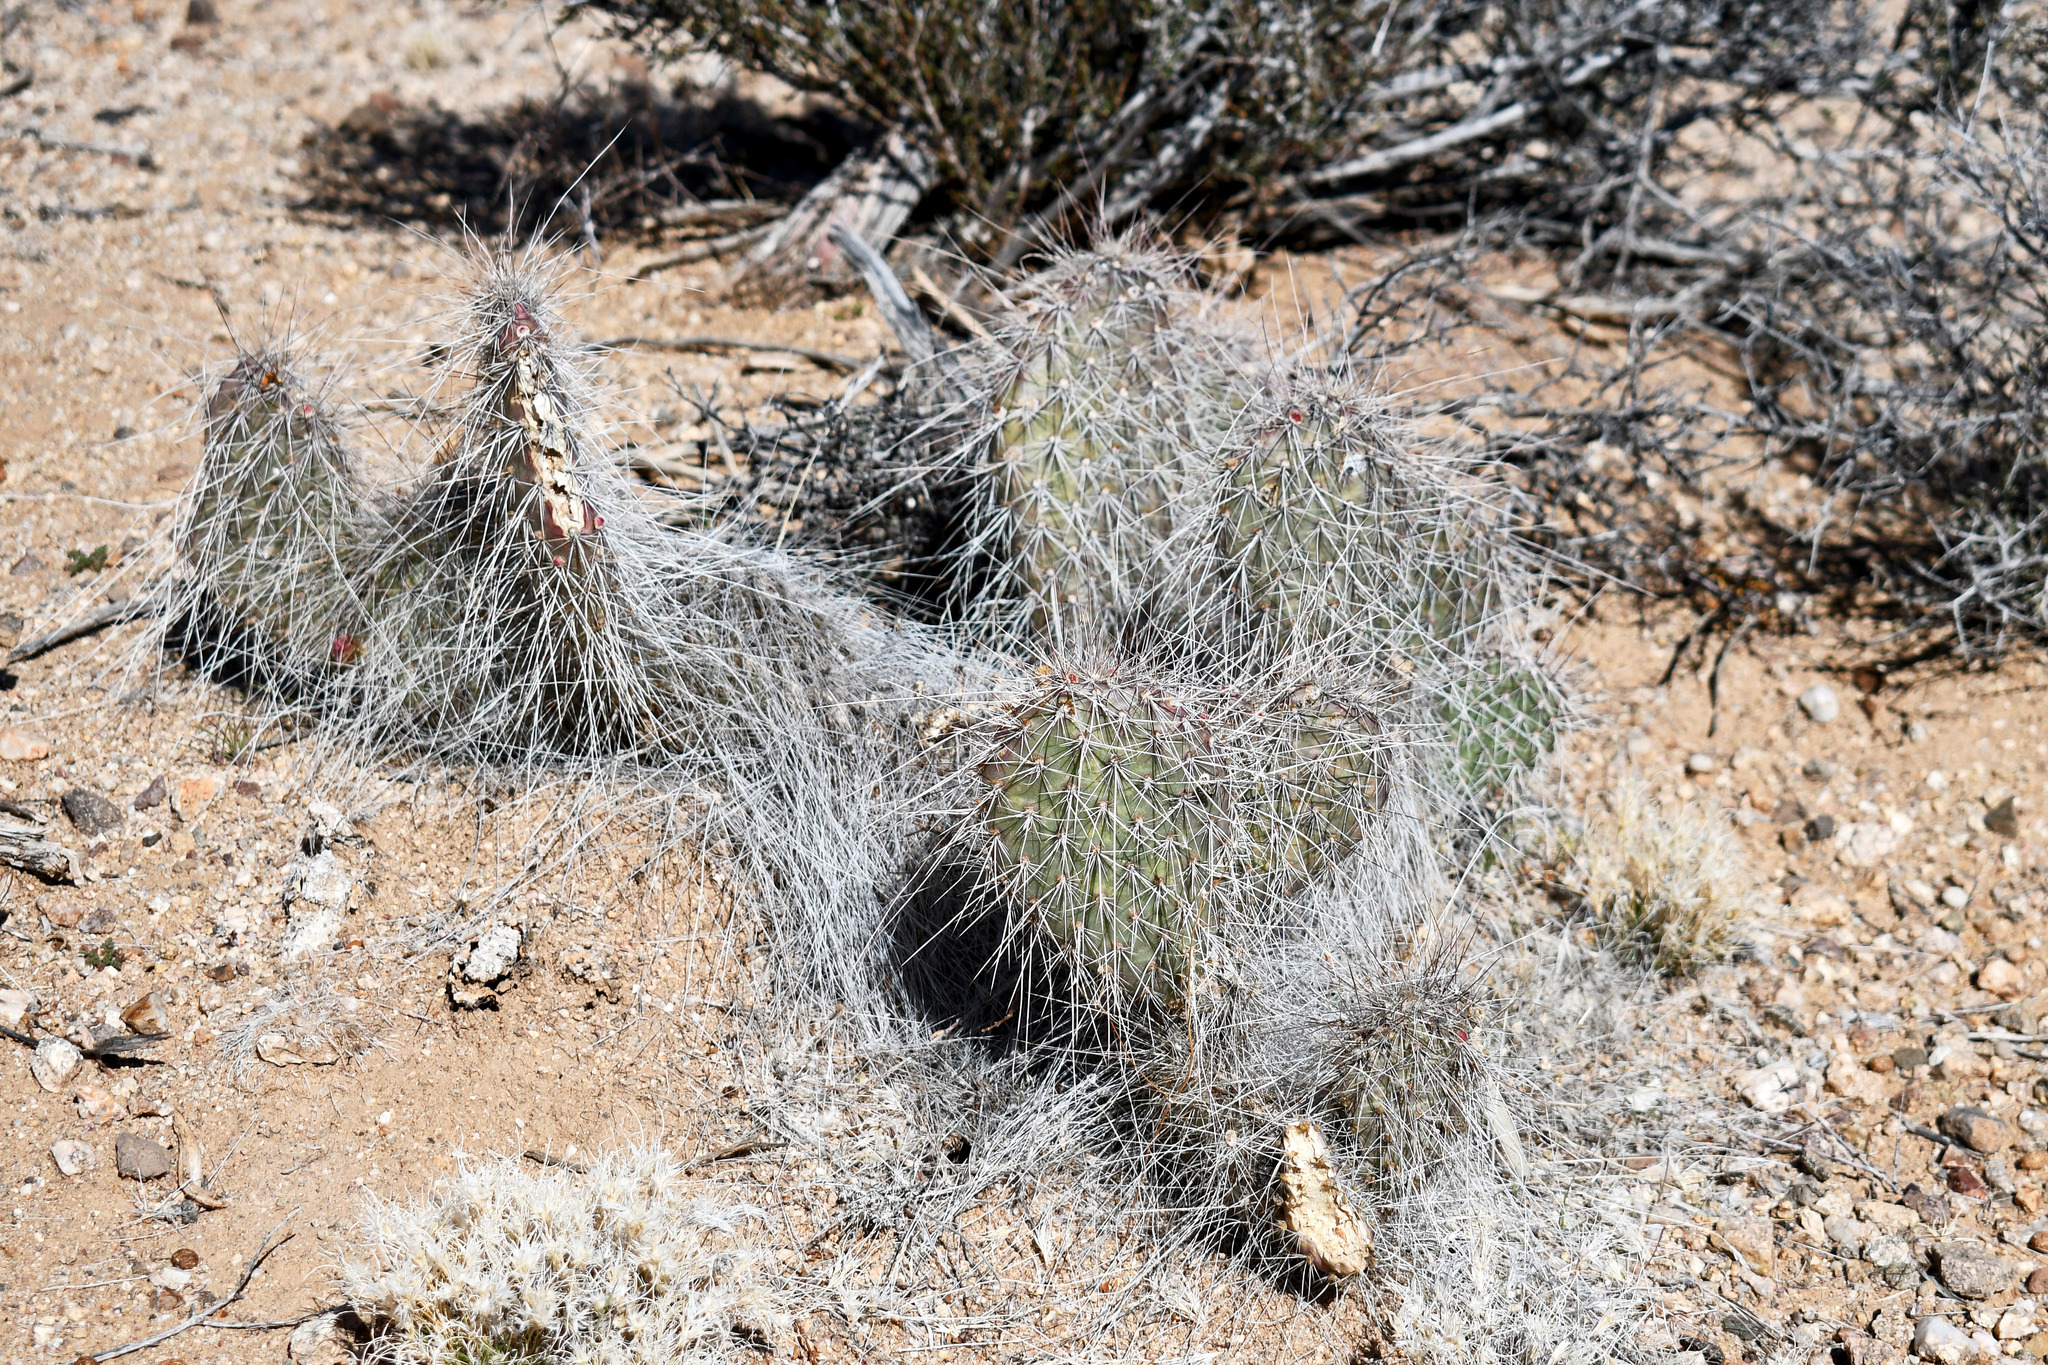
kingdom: Plantae
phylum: Tracheophyta
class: Magnoliopsida
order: Caryophyllales
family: Cactaceae
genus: Opuntia
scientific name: Opuntia polyacantha
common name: Plains prickly-pear
